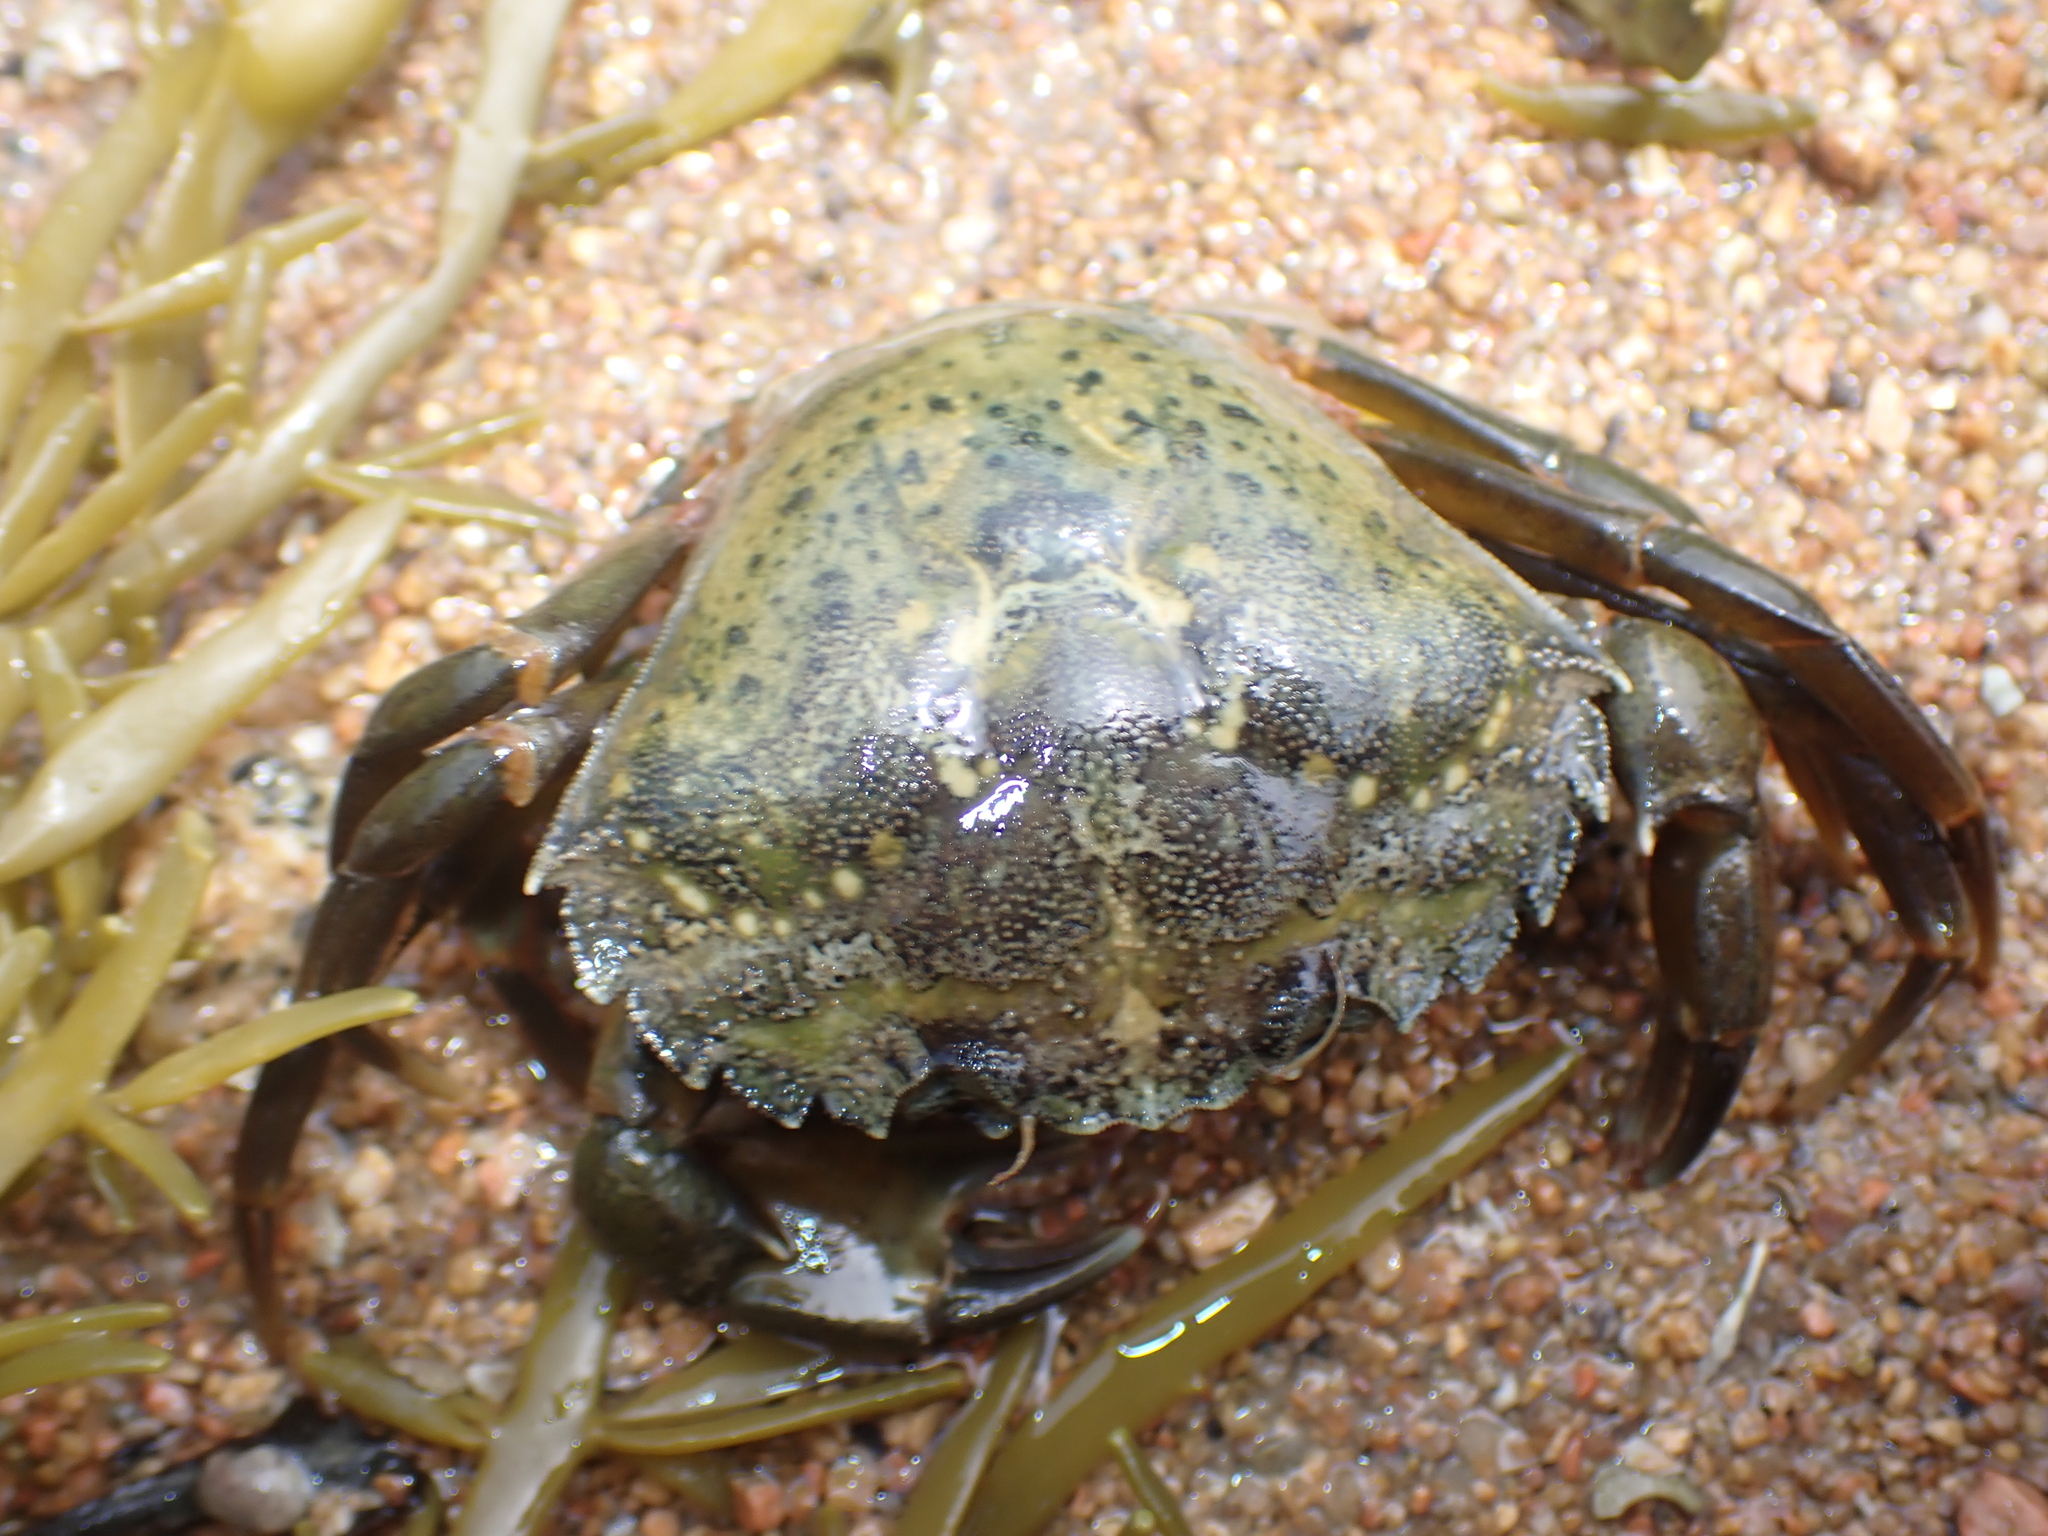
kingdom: Animalia
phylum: Arthropoda
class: Malacostraca
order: Decapoda
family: Carcinidae
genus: Carcinus
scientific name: Carcinus maenas
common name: European green crab
